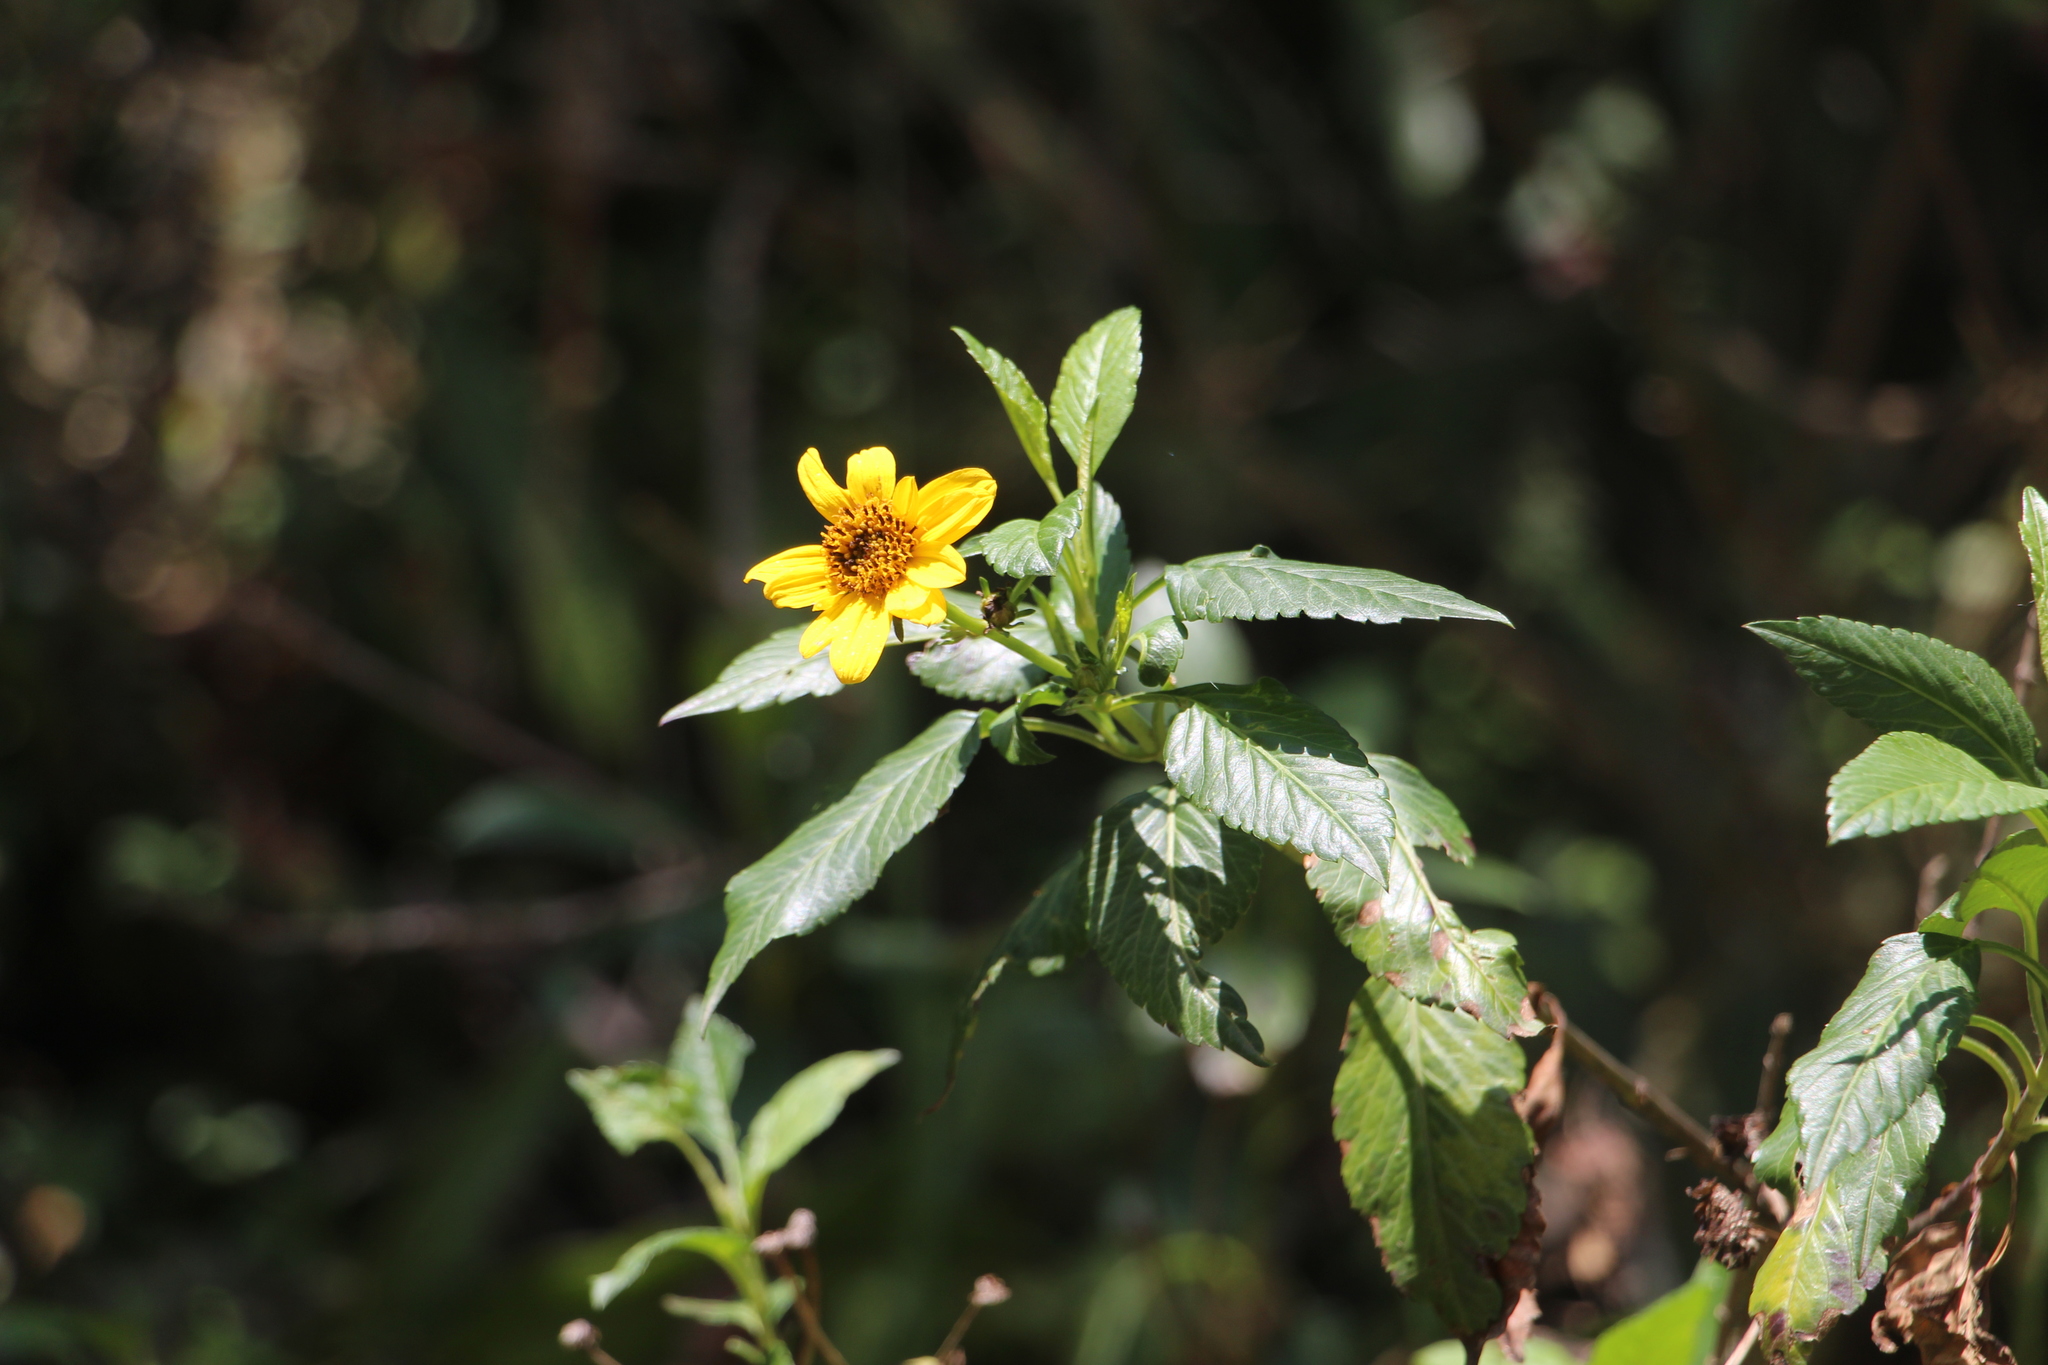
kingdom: Plantae
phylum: Tracheophyta
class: Magnoliopsida
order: Asterales
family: Asteraceae
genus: Bidens
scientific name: Bidens rubifolia
